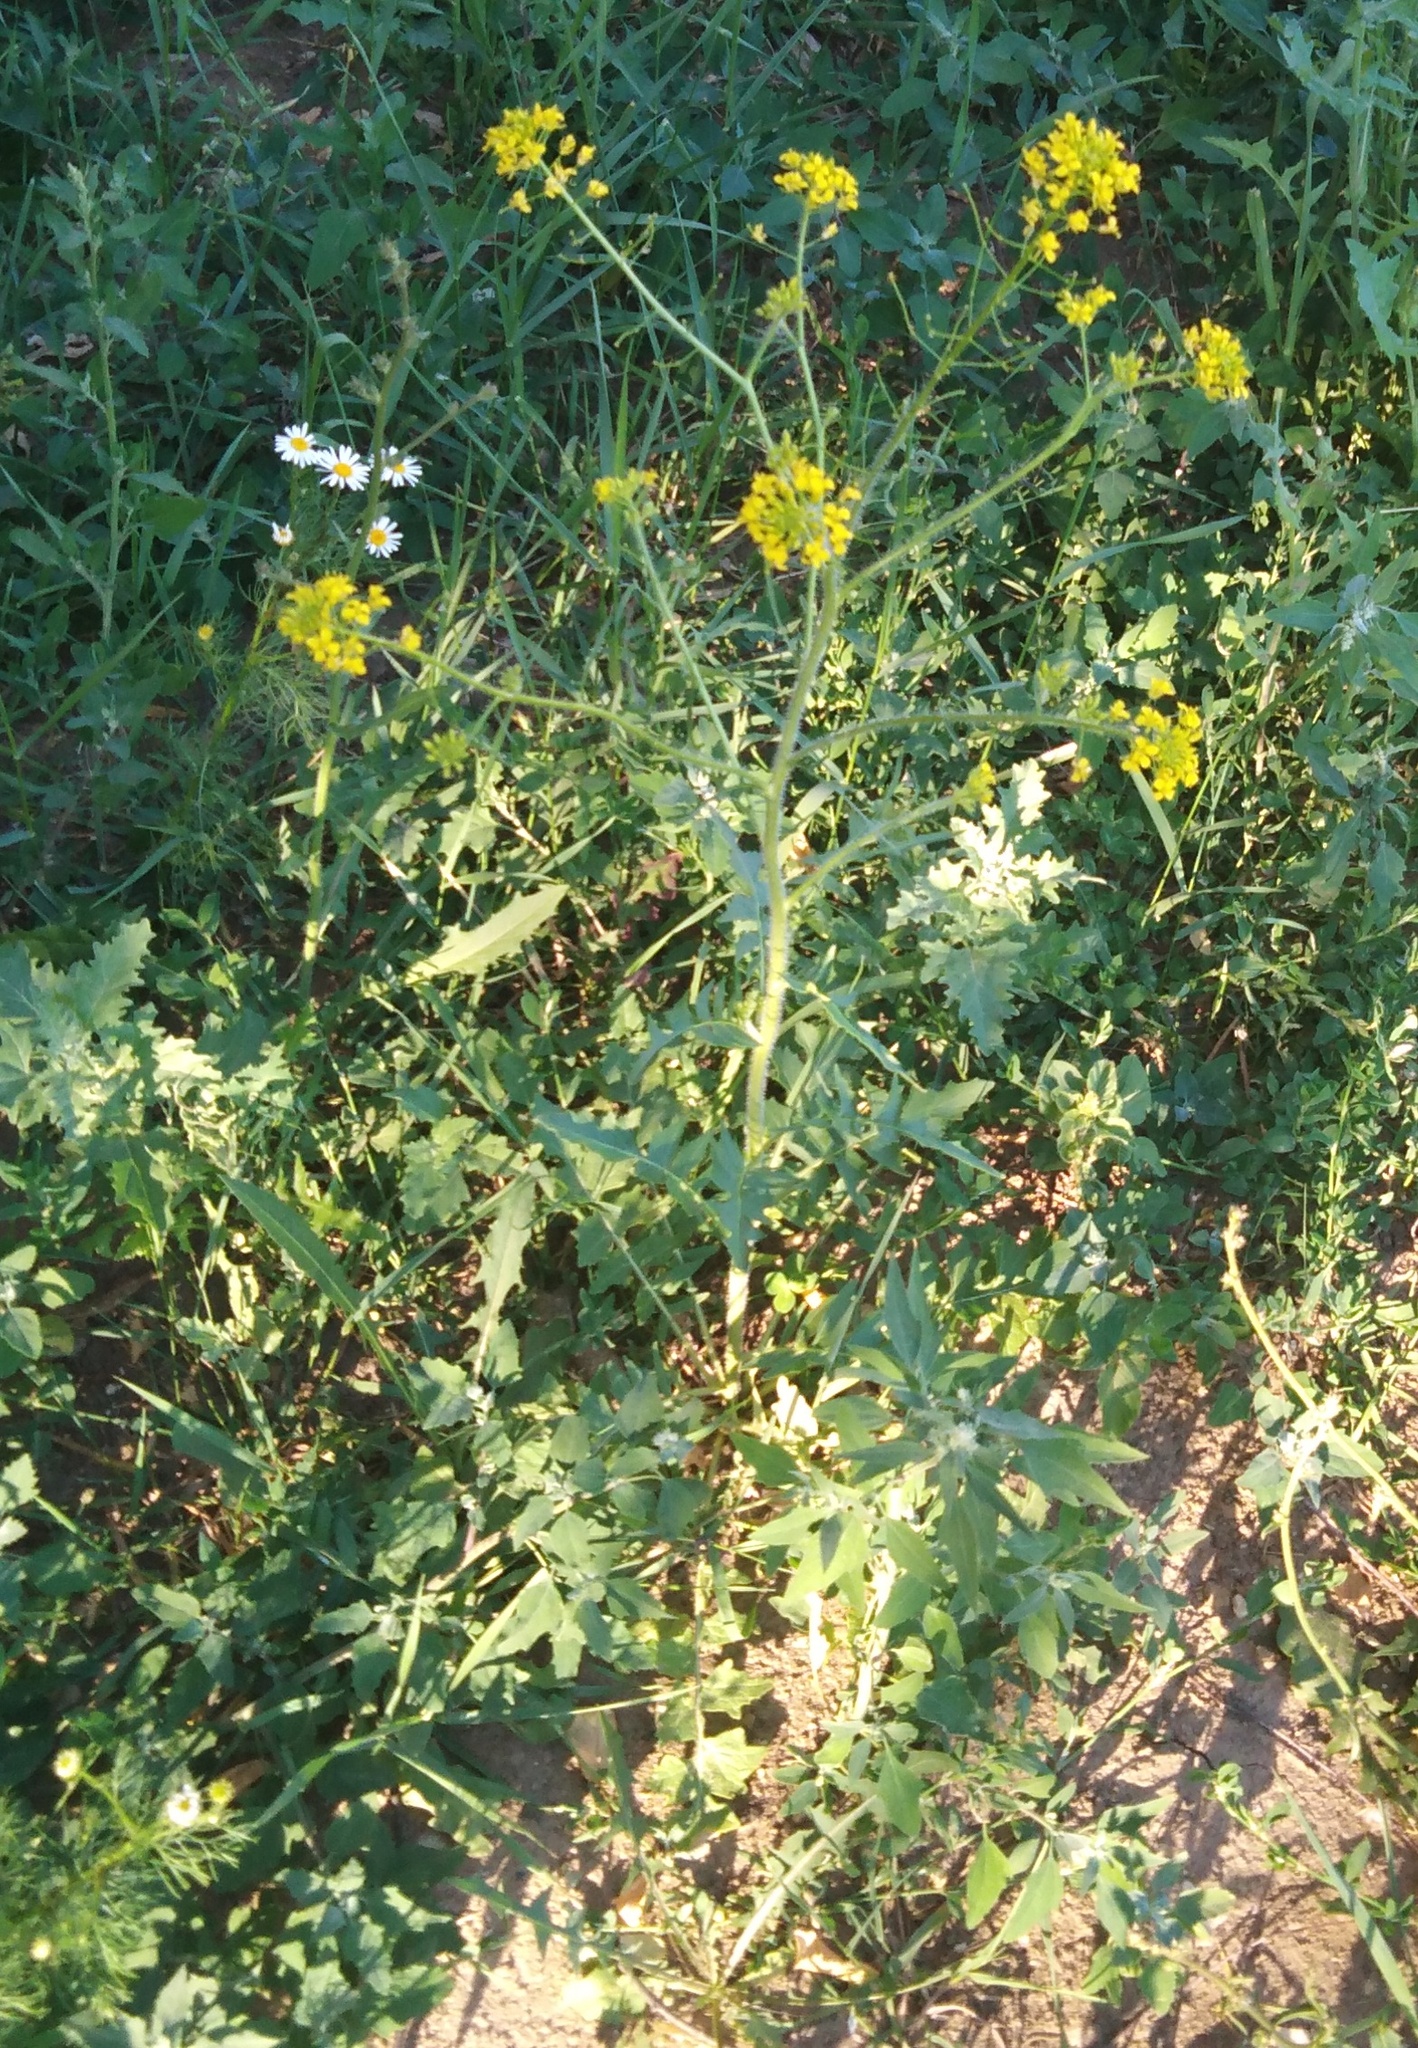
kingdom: Plantae
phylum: Tracheophyta
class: Magnoliopsida
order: Brassicales
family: Brassicaceae
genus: Sisymbrium
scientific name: Sisymbrium loeselii
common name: False london-rocket
